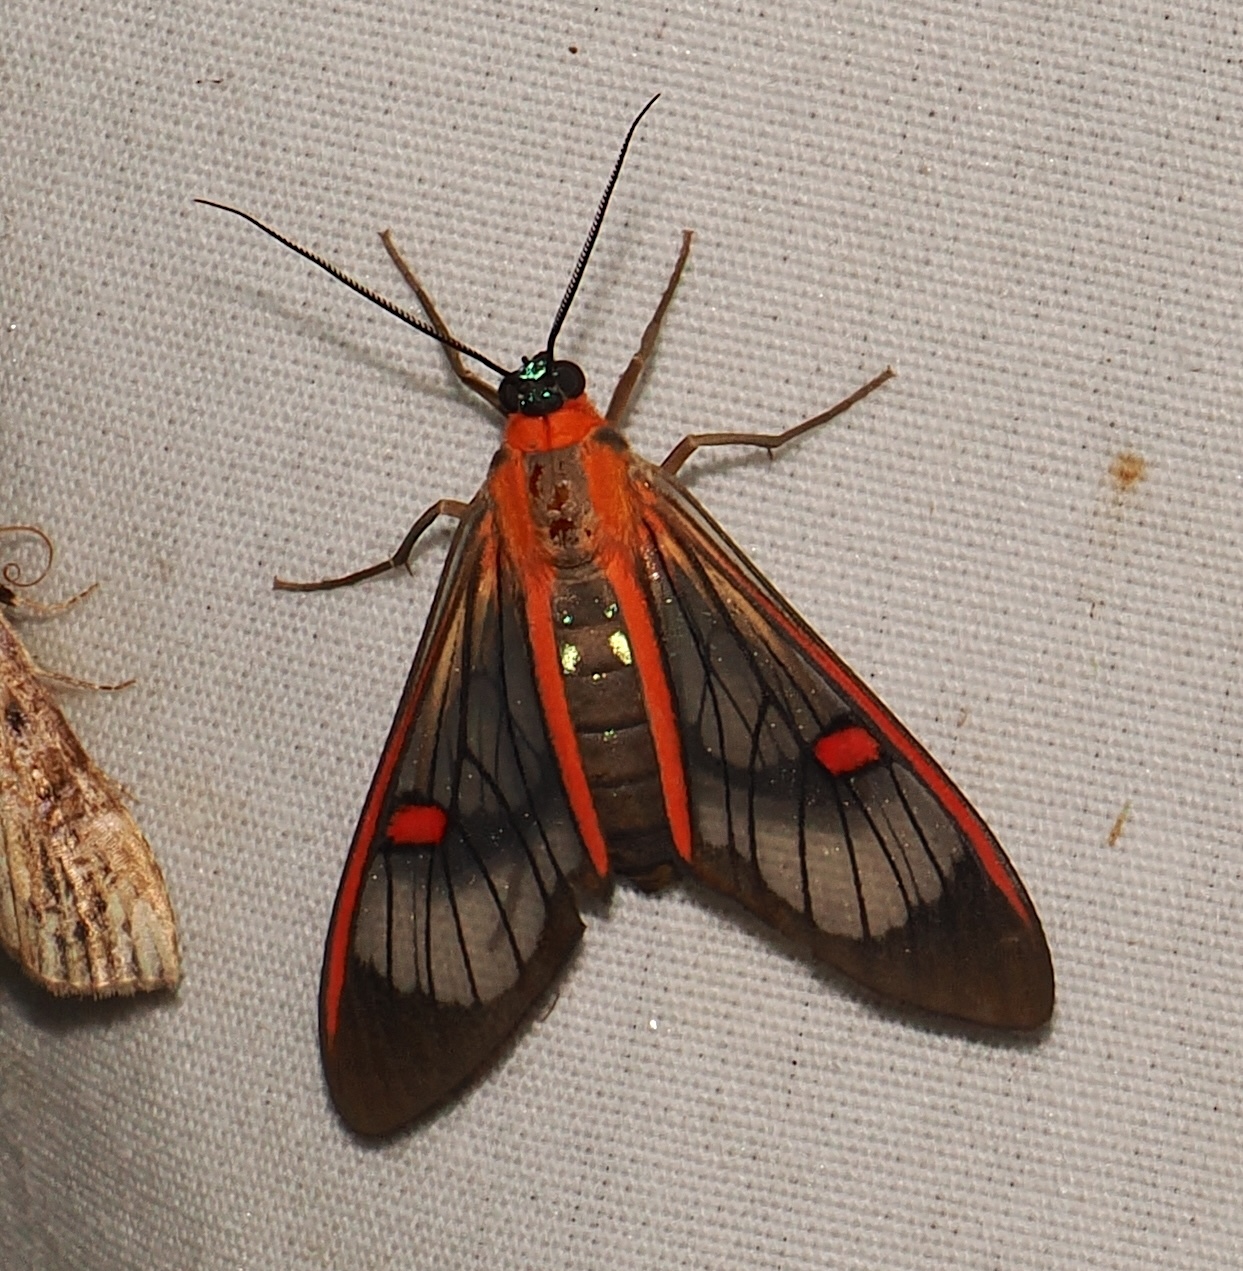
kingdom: Animalia
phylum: Arthropoda
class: Insecta
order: Lepidoptera
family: Erebidae
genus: Lepidoneiva
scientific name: Lepidoneiva erubescens
